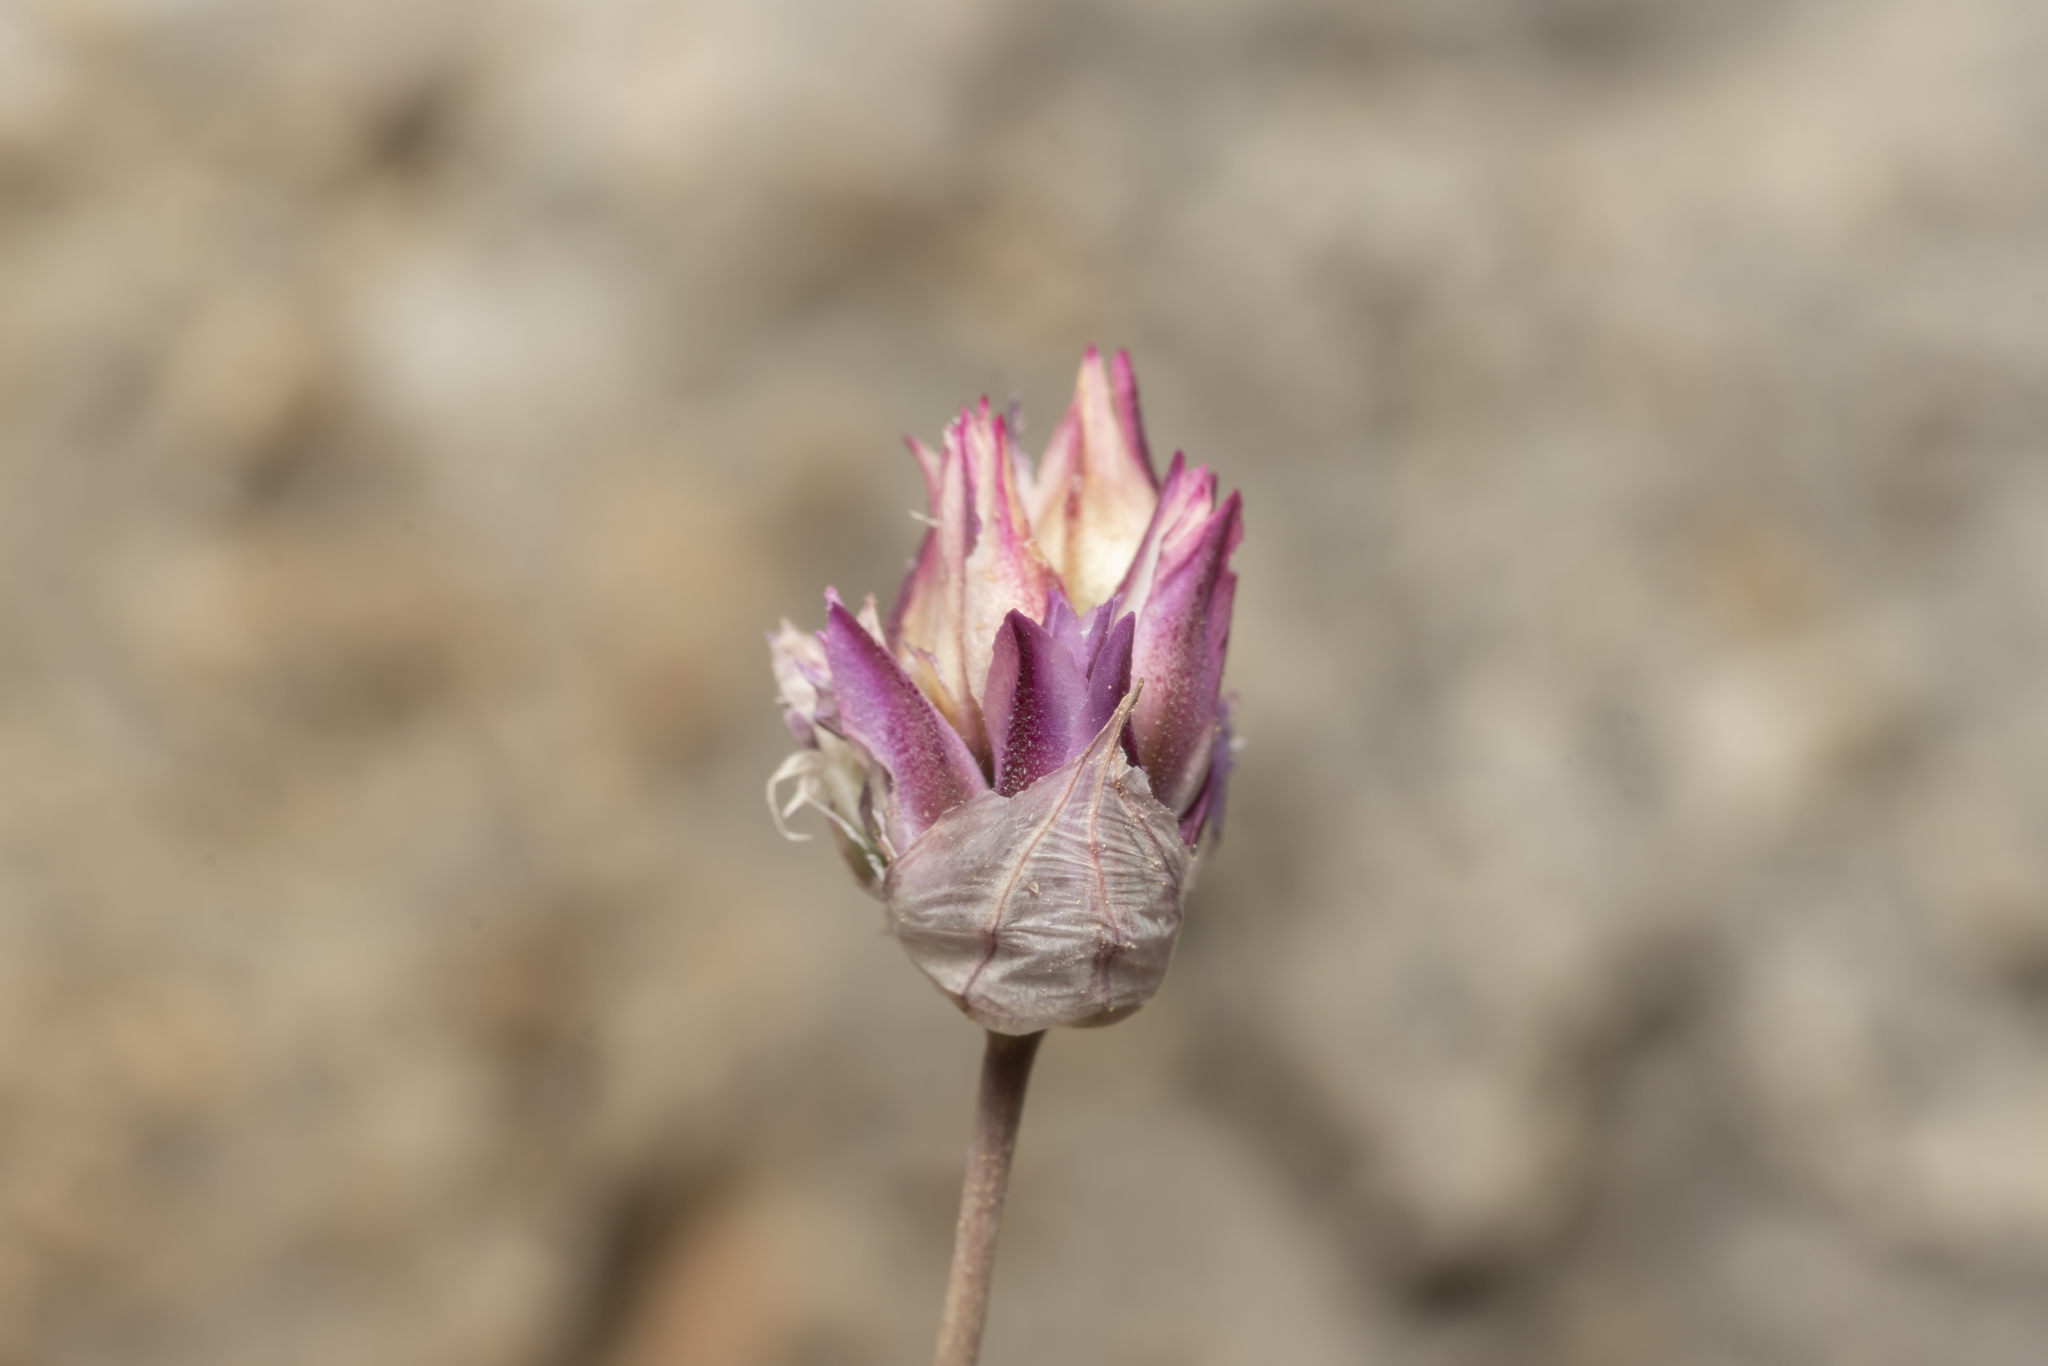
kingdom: Plantae
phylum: Tracheophyta
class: Liliopsida
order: Asparagales
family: Amaryllidaceae
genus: Allium
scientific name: Allium junceum
